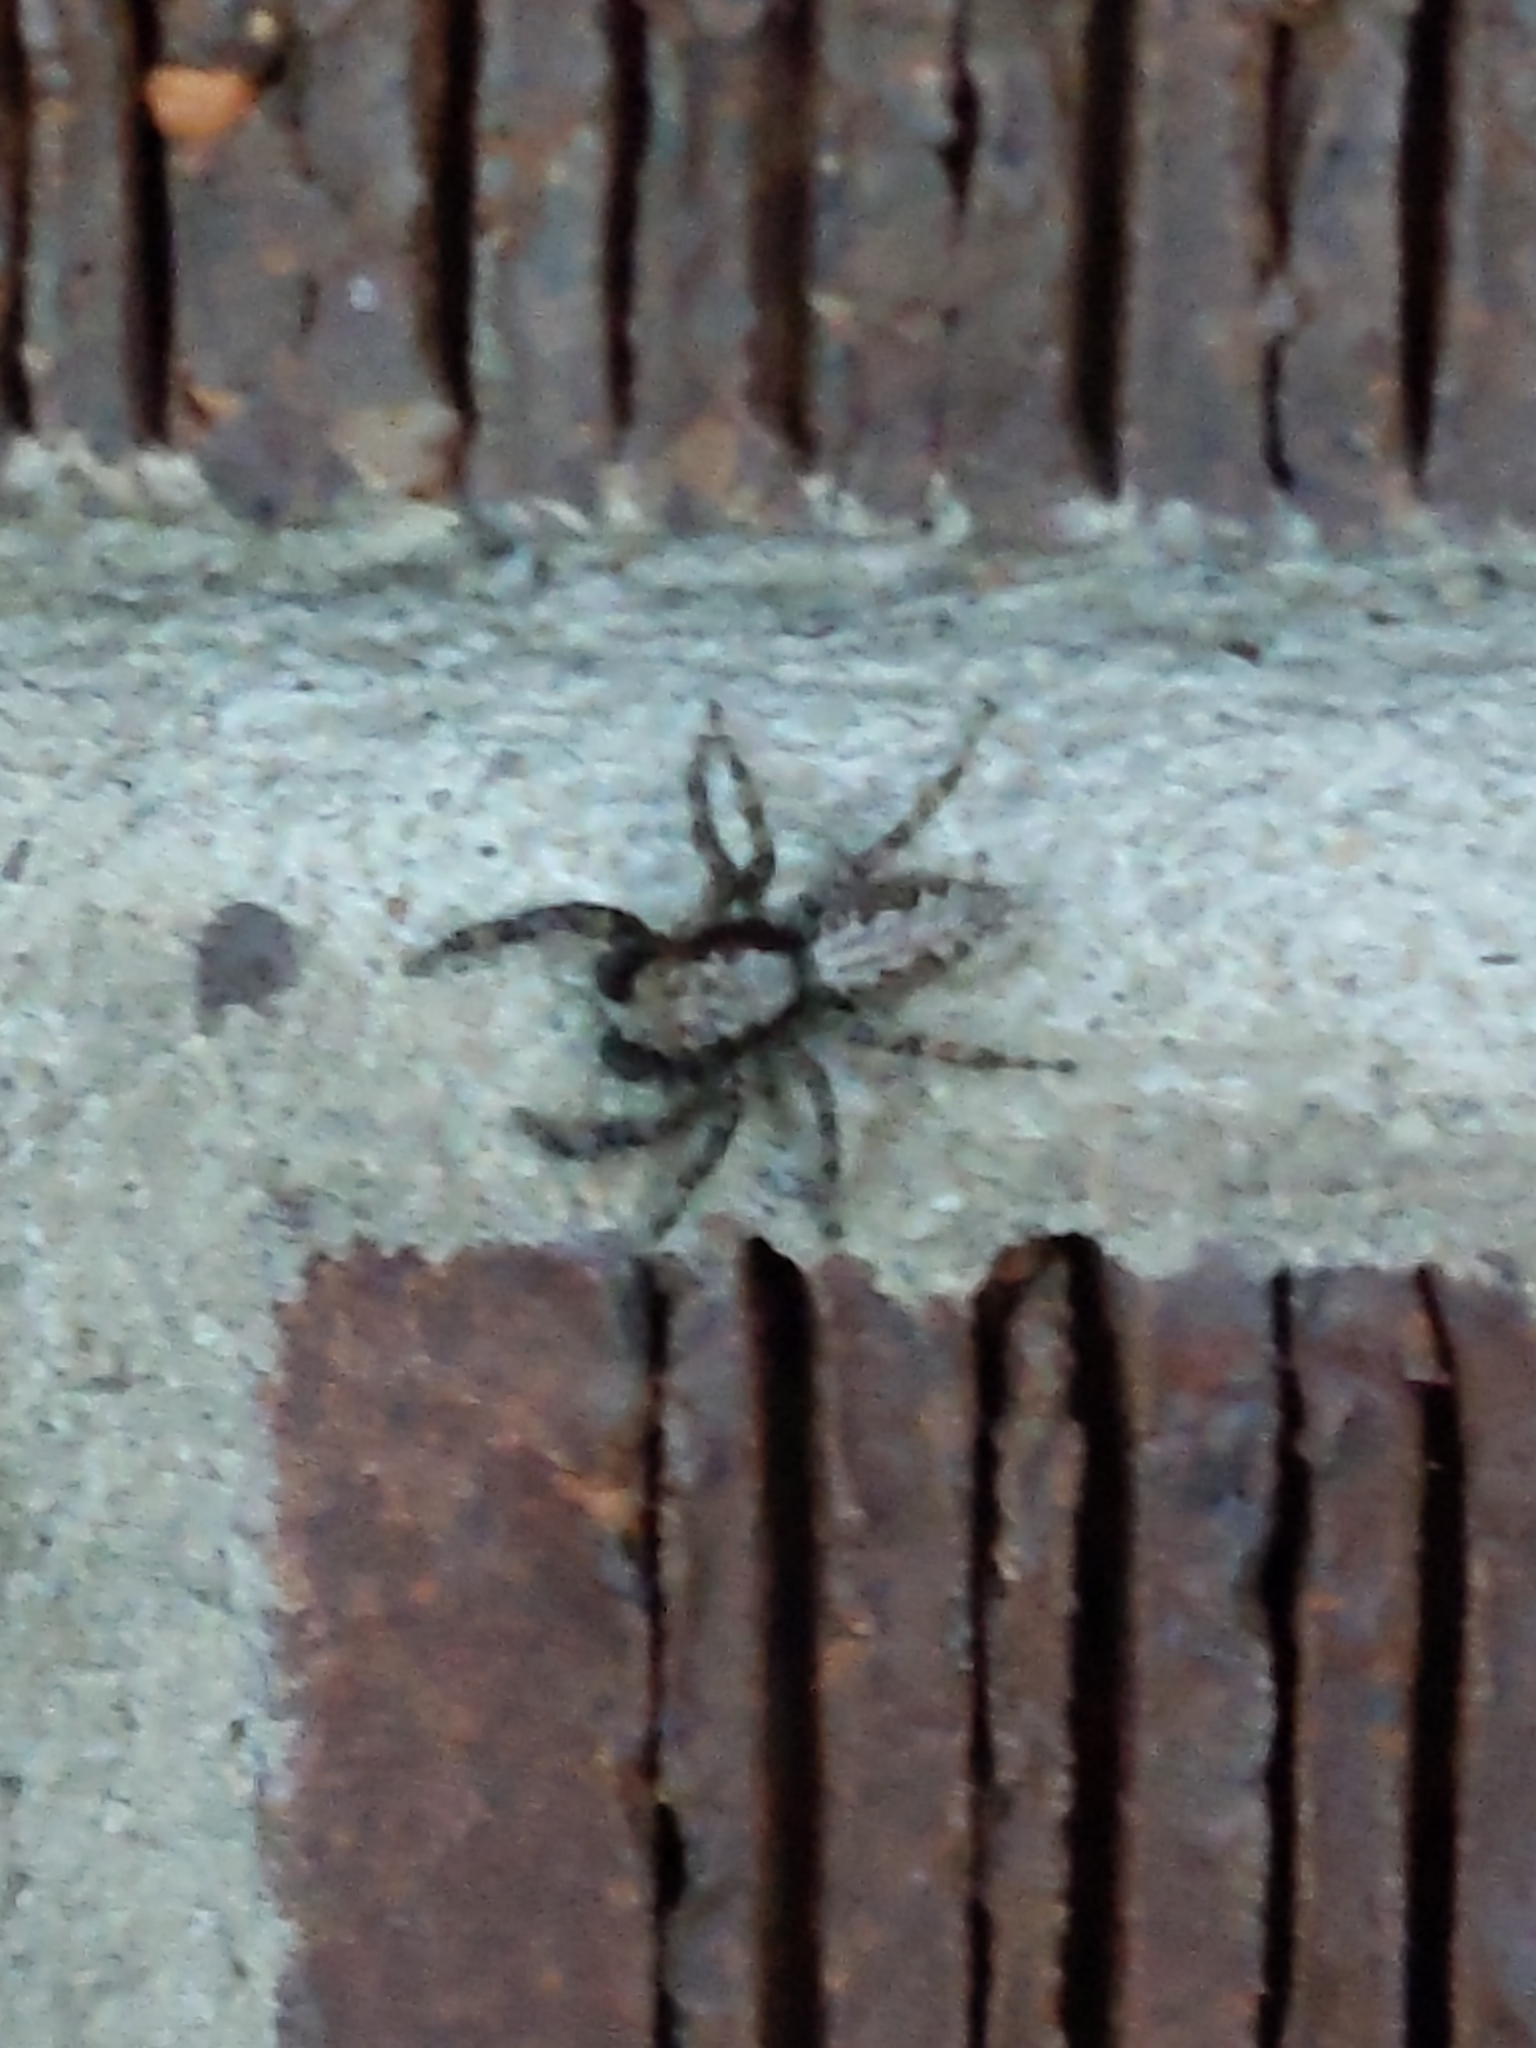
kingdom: Animalia
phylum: Arthropoda
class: Arachnida
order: Araneae
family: Salticidae
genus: Platycryptus
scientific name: Platycryptus californicus
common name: Jumping spiders
